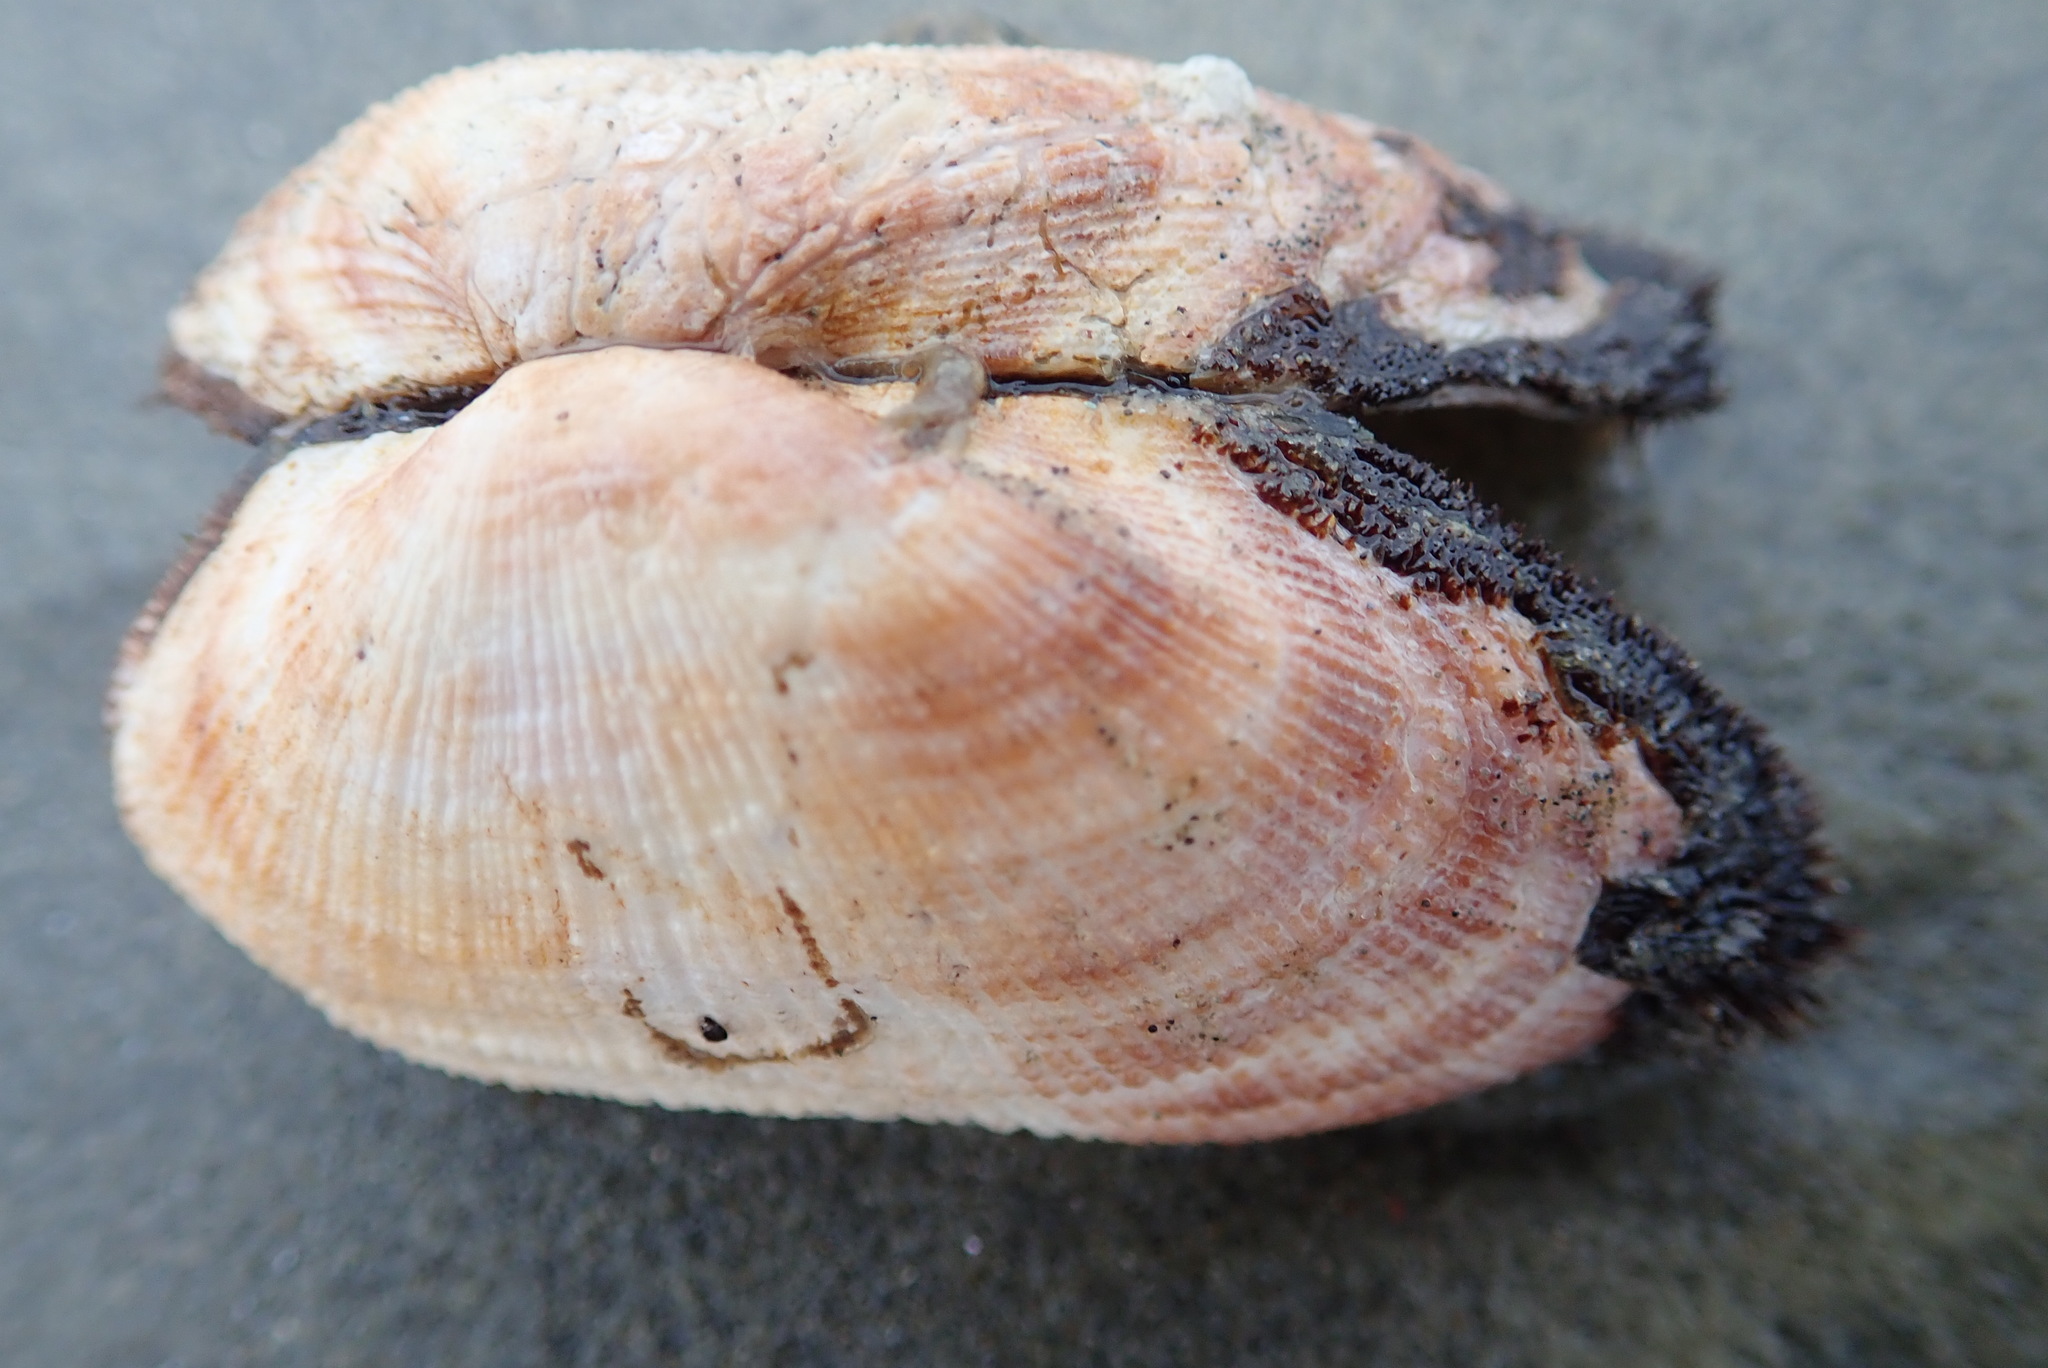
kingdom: Animalia
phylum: Mollusca
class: Bivalvia
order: Arcida
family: Arcidae
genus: Barbatia
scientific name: Barbatia novaezealandiae
